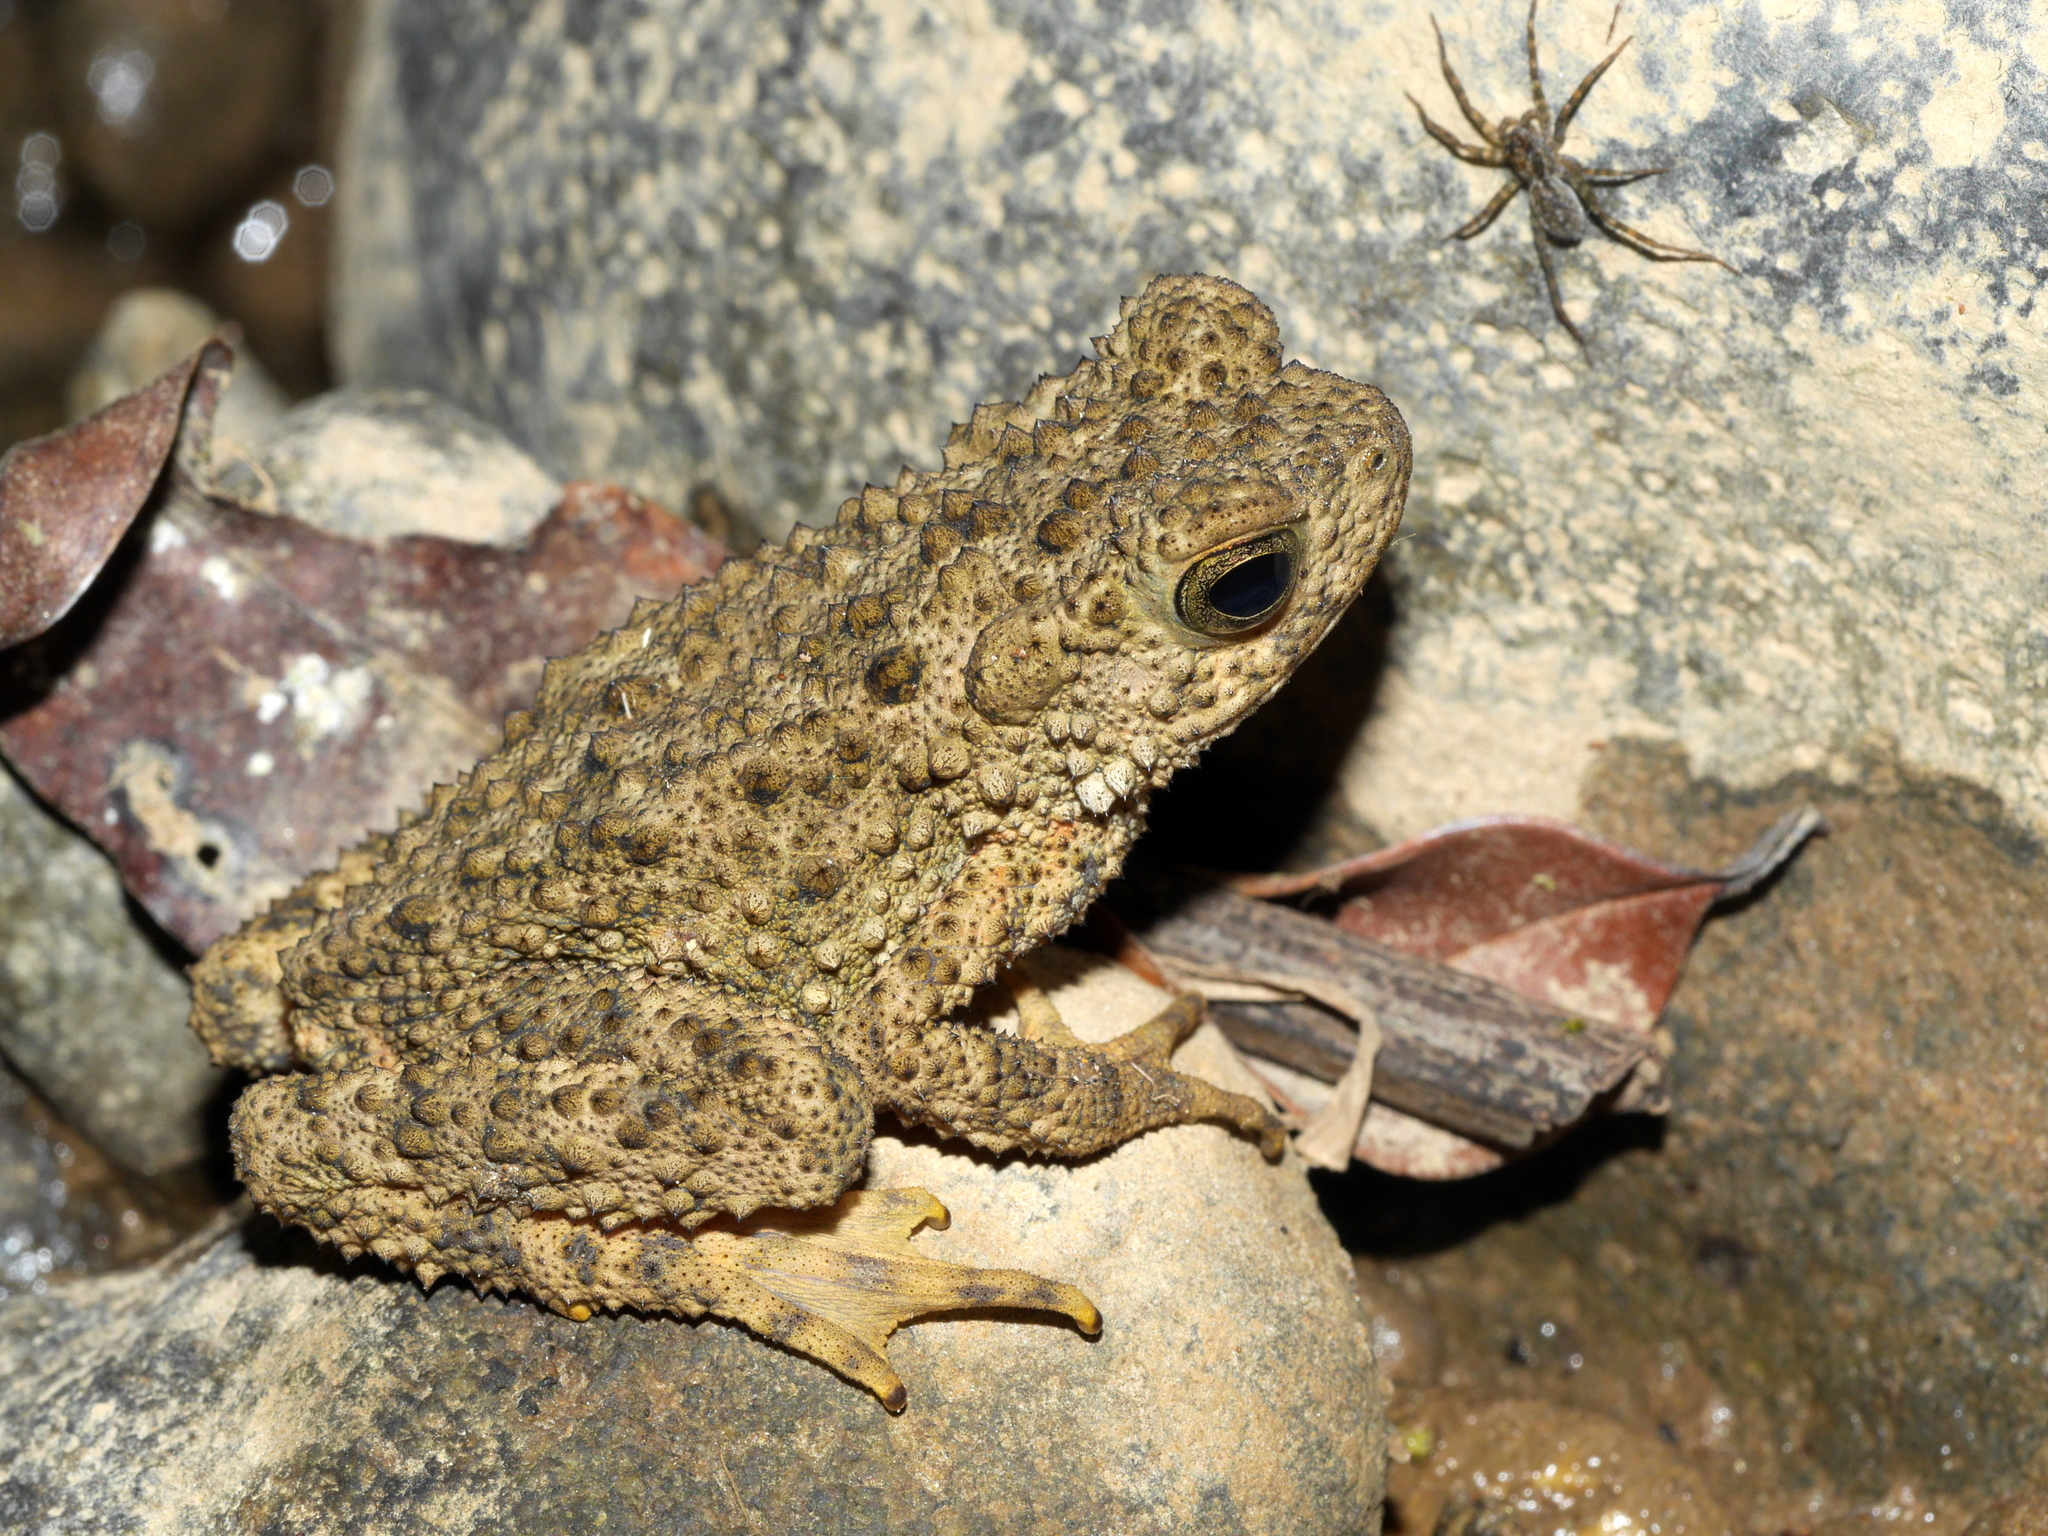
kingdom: Animalia
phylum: Chordata
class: Amphibia
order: Anura
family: Bufonidae
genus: Phrynoidis
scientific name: Phrynoidis asper
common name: Asian giant toad
